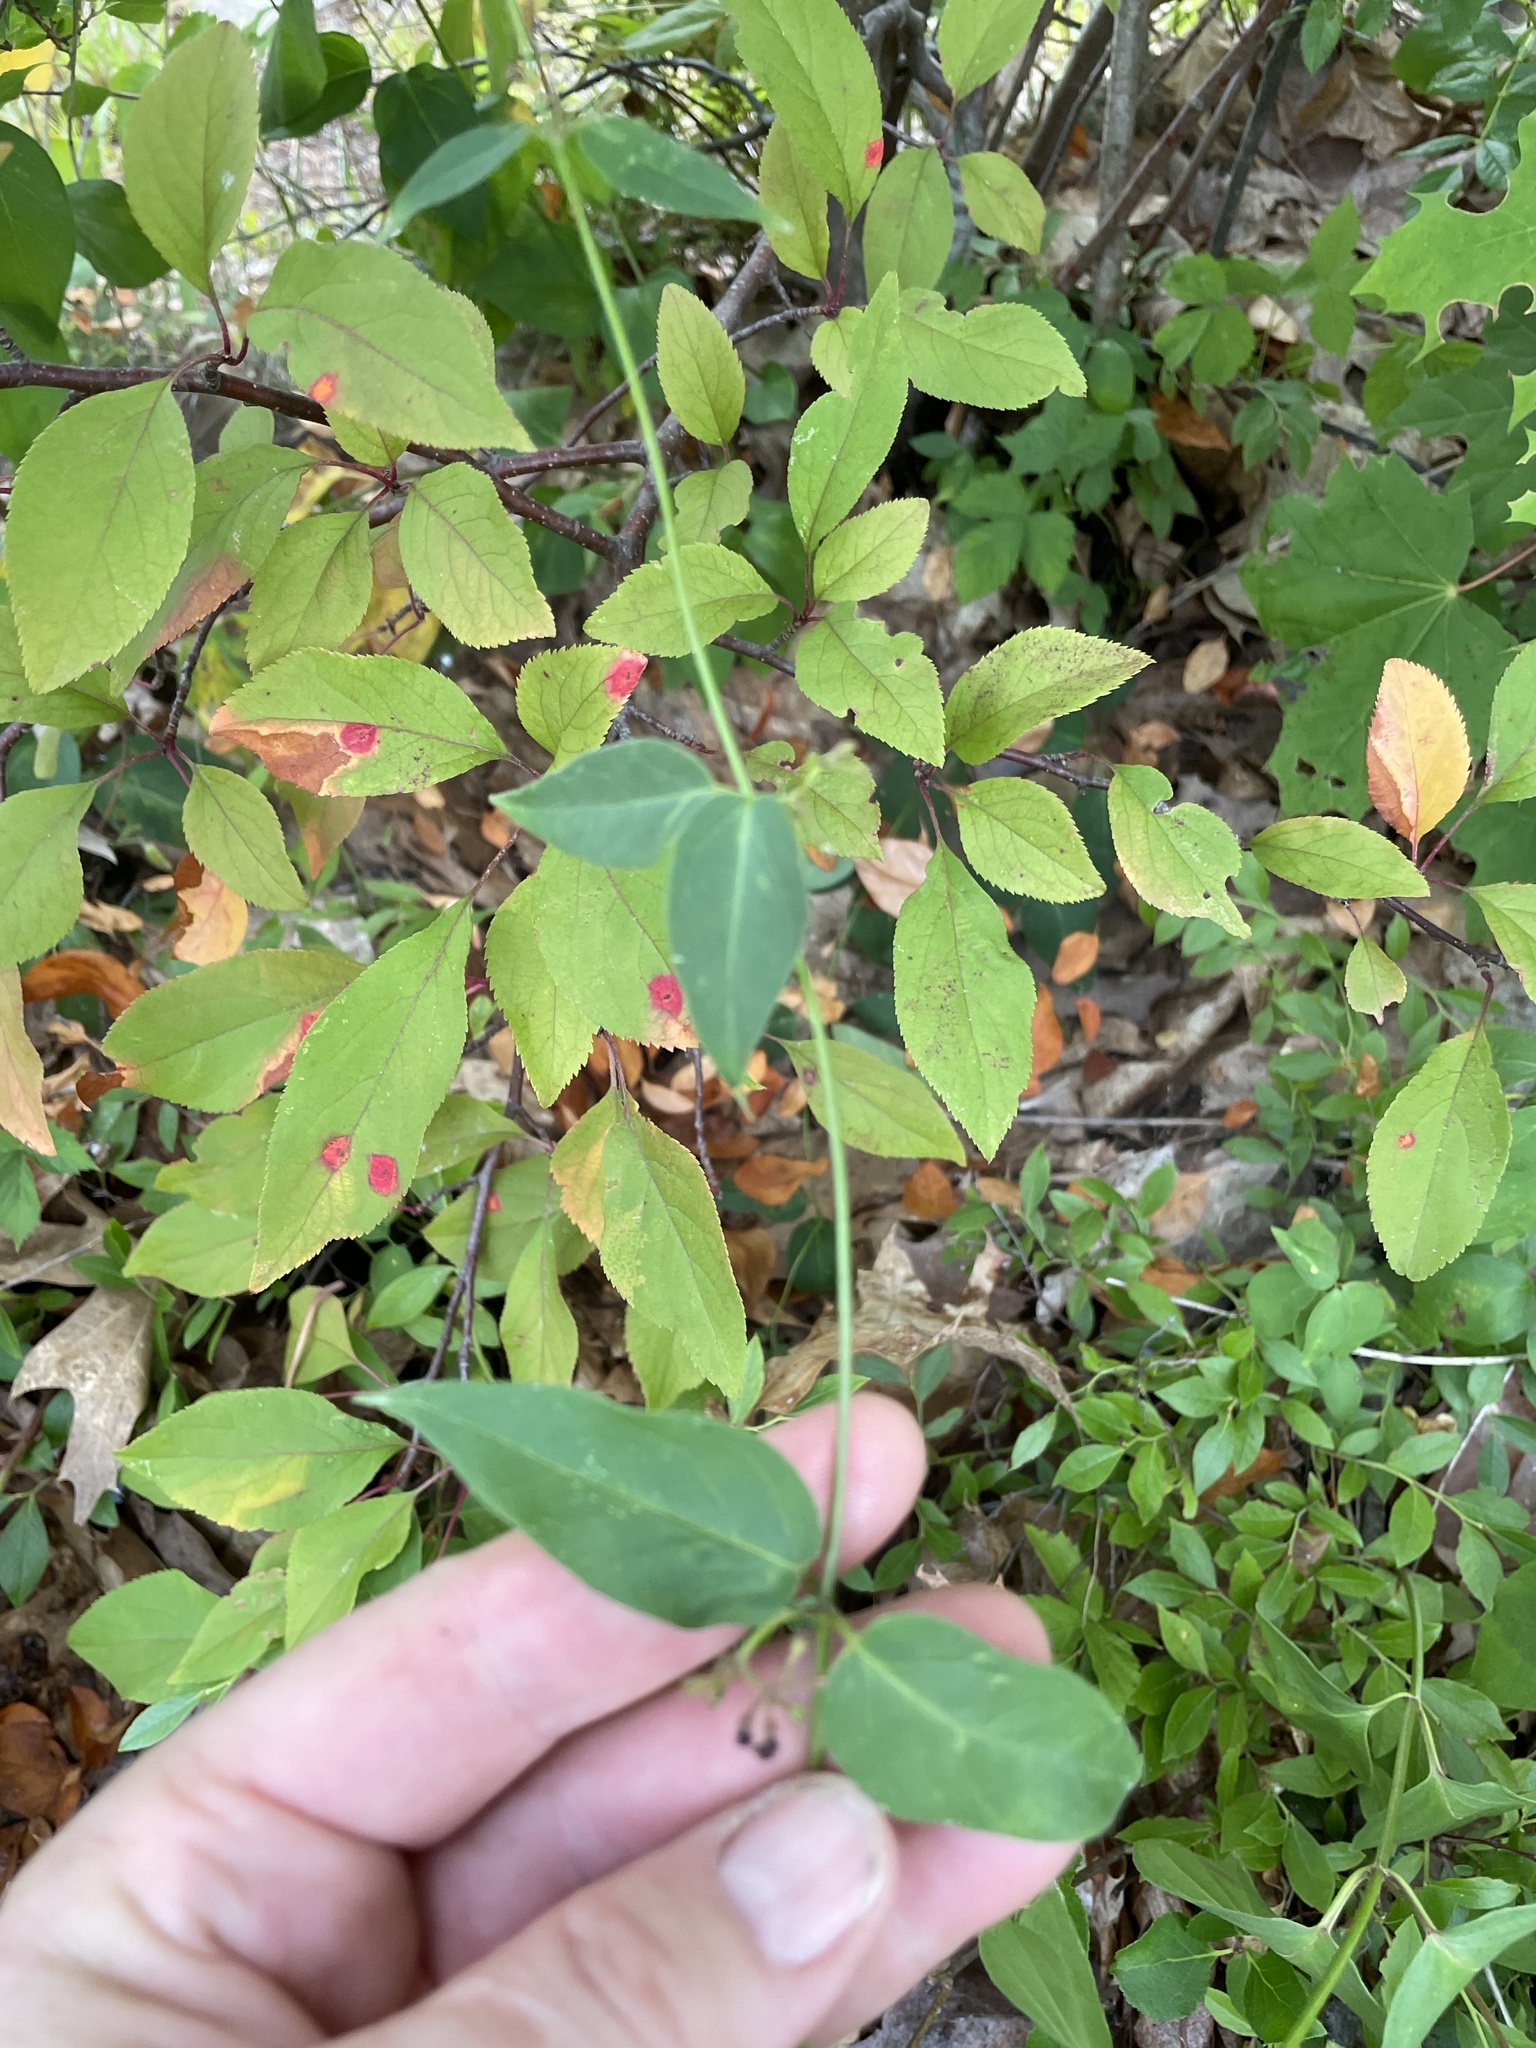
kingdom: Plantae
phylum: Tracheophyta
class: Magnoliopsida
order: Gentianales
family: Apocynaceae
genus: Vincetoxicum
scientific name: Vincetoxicum nigrum
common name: Black swallow-wort
